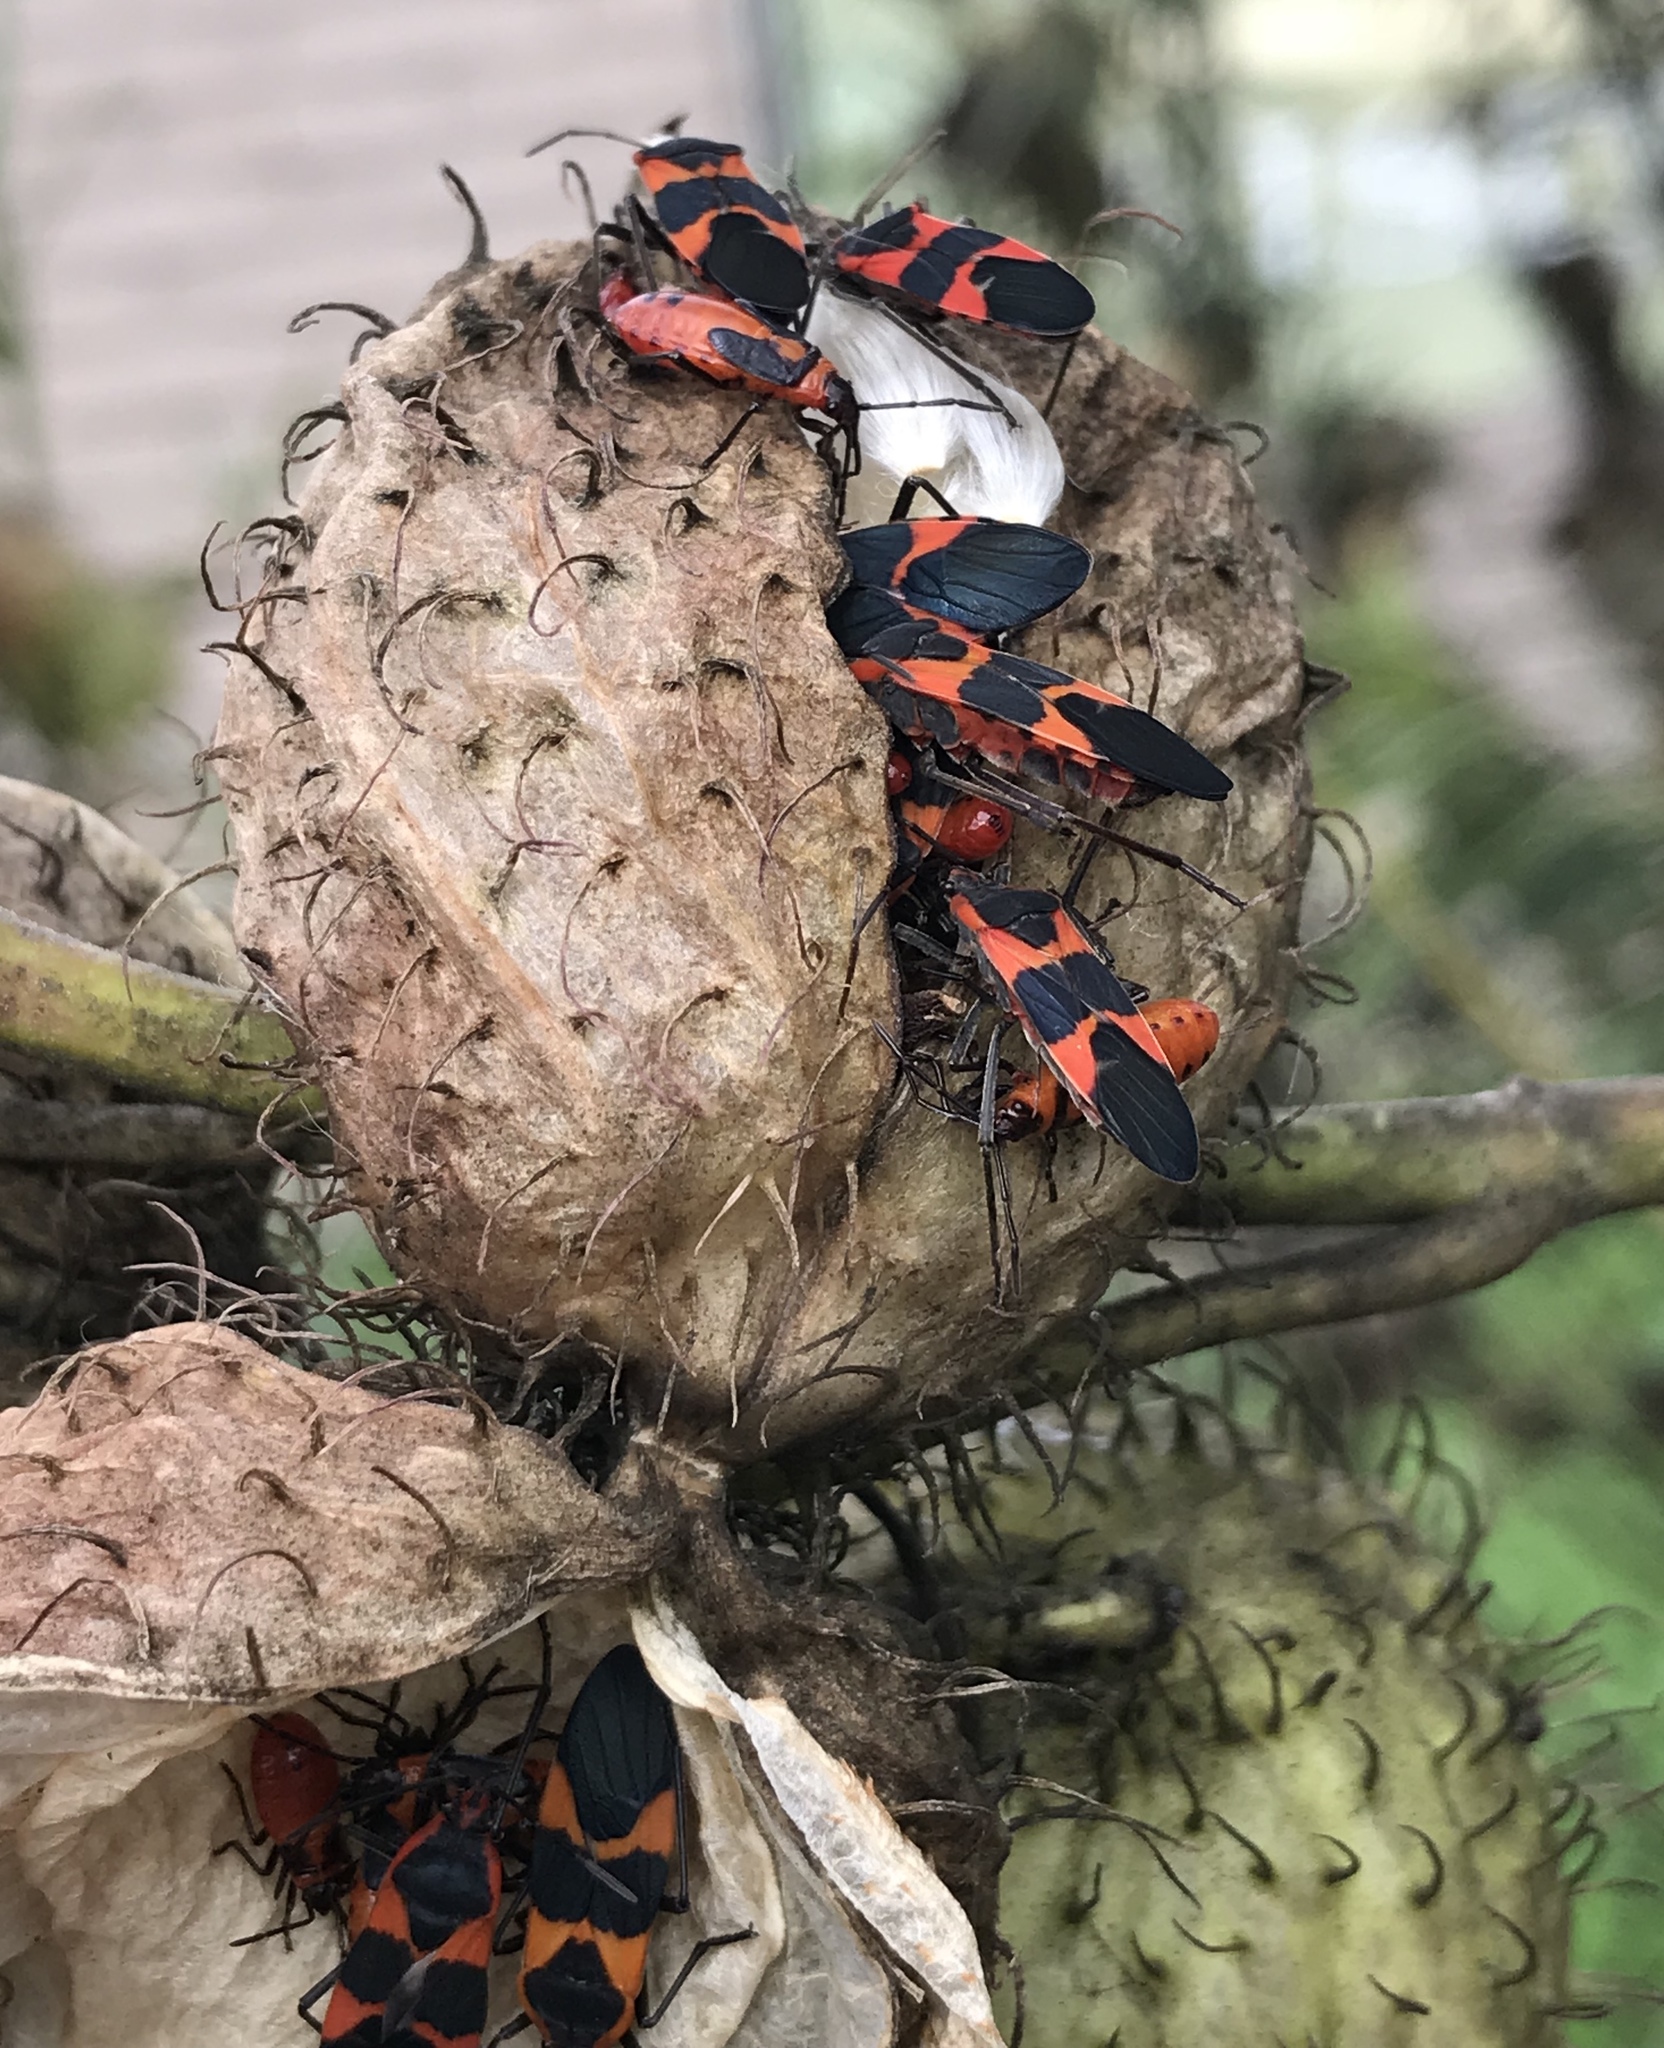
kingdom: Animalia
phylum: Arthropoda
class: Insecta
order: Hemiptera
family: Lygaeidae
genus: Oncopeltus
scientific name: Oncopeltus fasciatus
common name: Large milkweed bug
